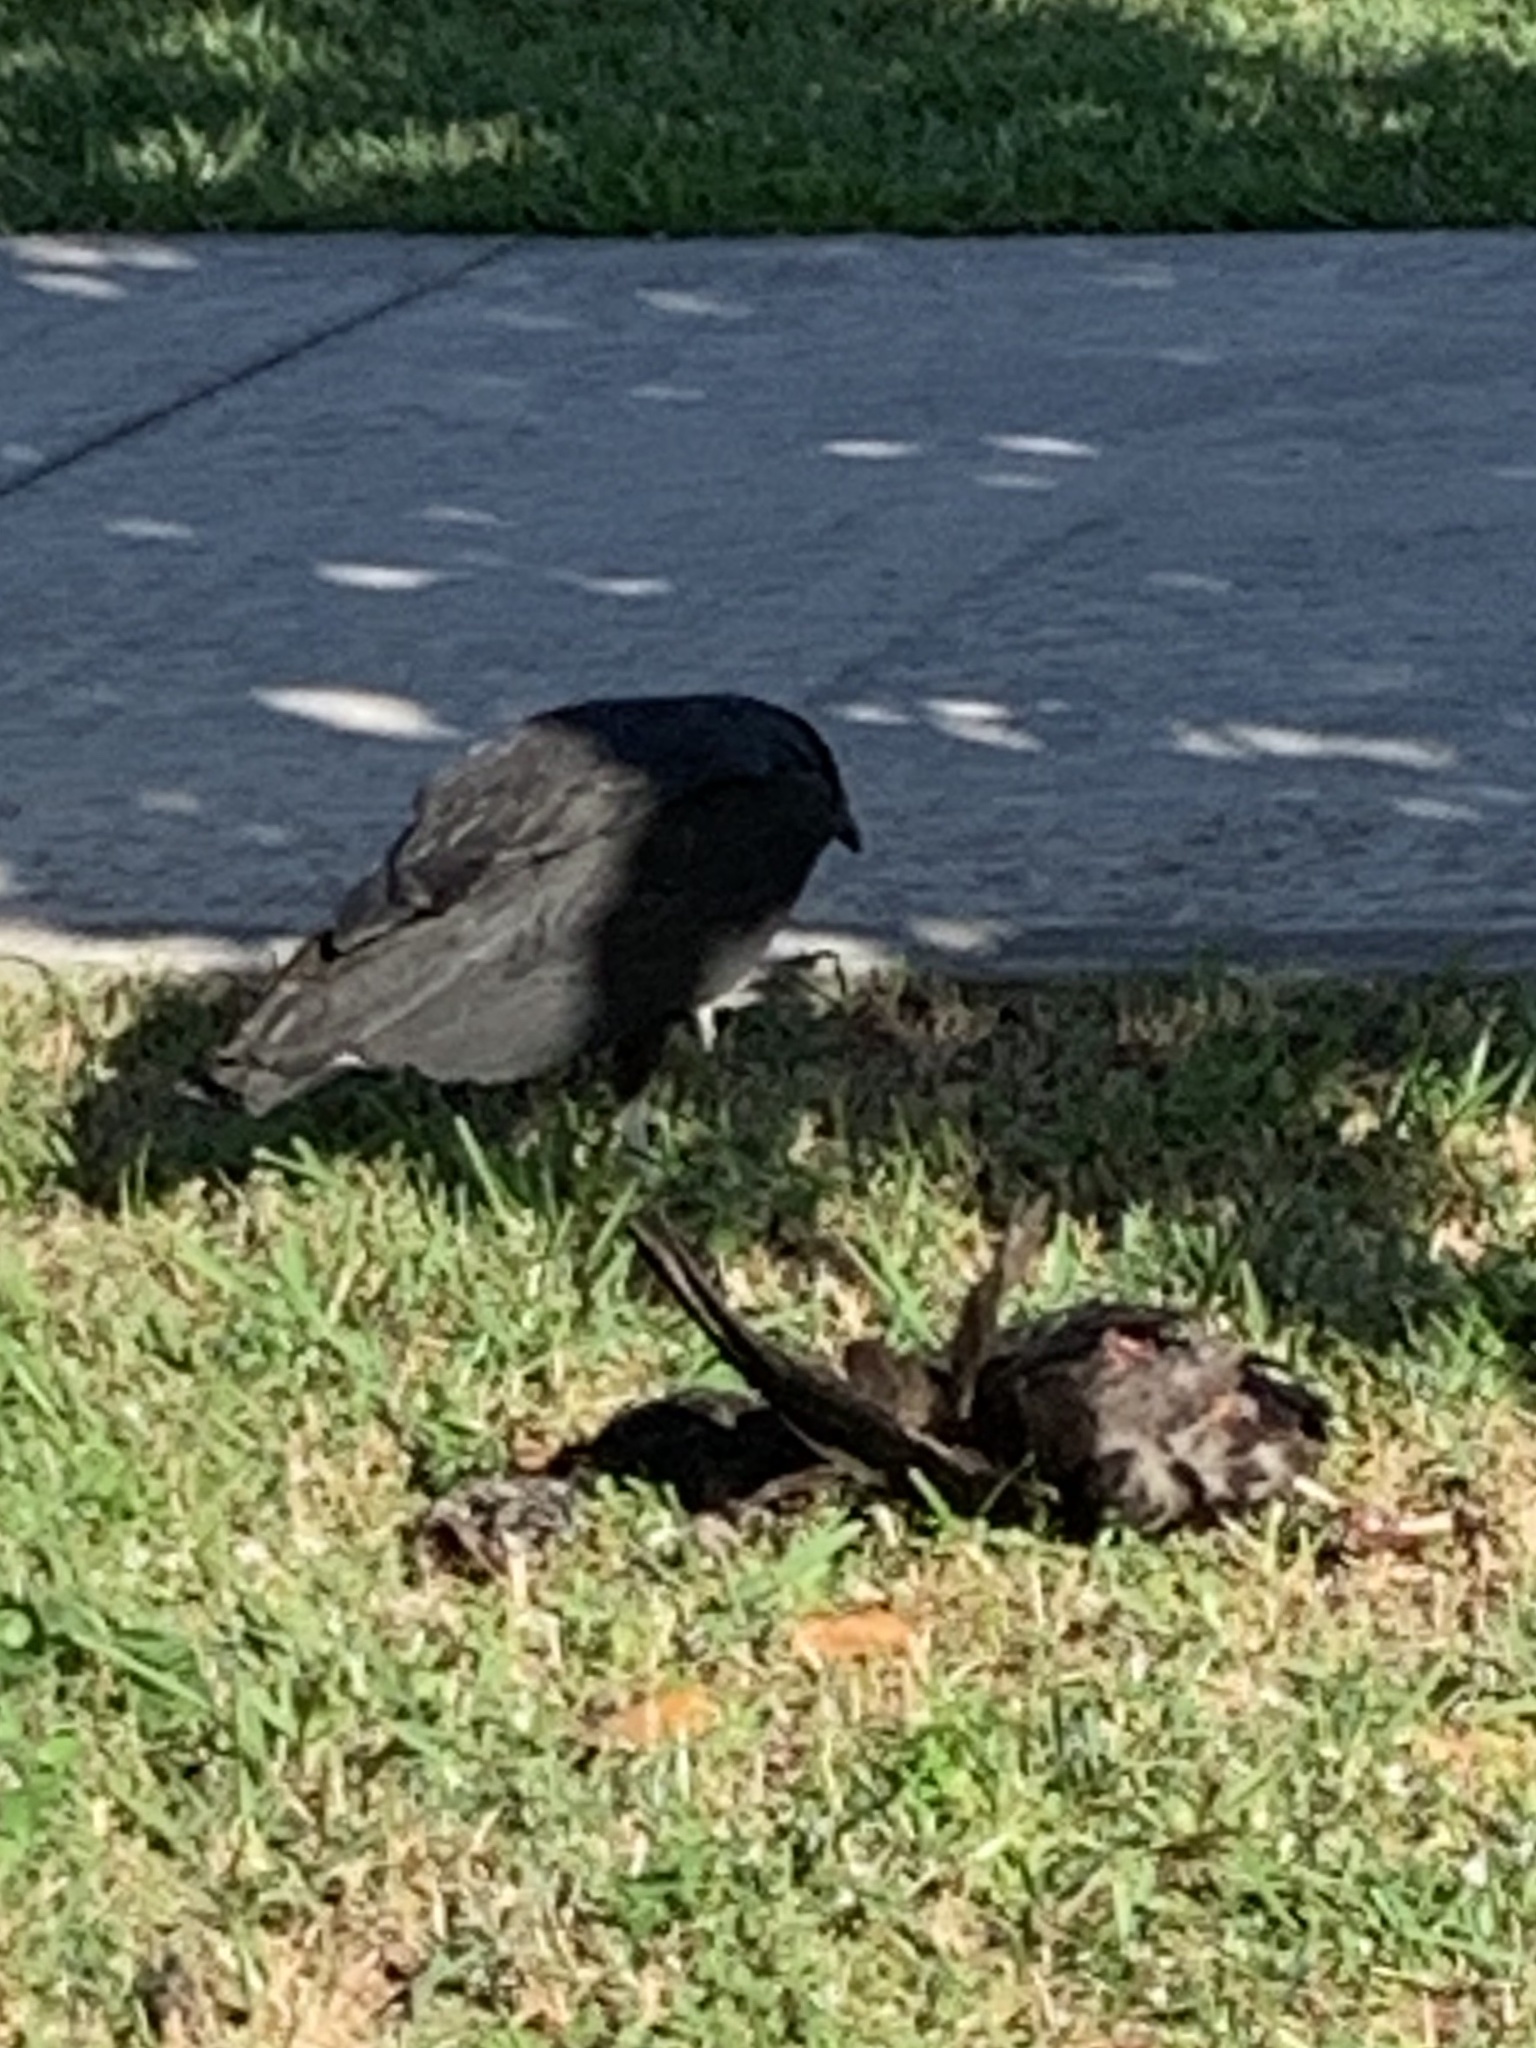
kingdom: Animalia
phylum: Chordata
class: Aves
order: Accipitriformes
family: Cathartidae
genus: Coragyps
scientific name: Coragyps atratus
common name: Black vulture
